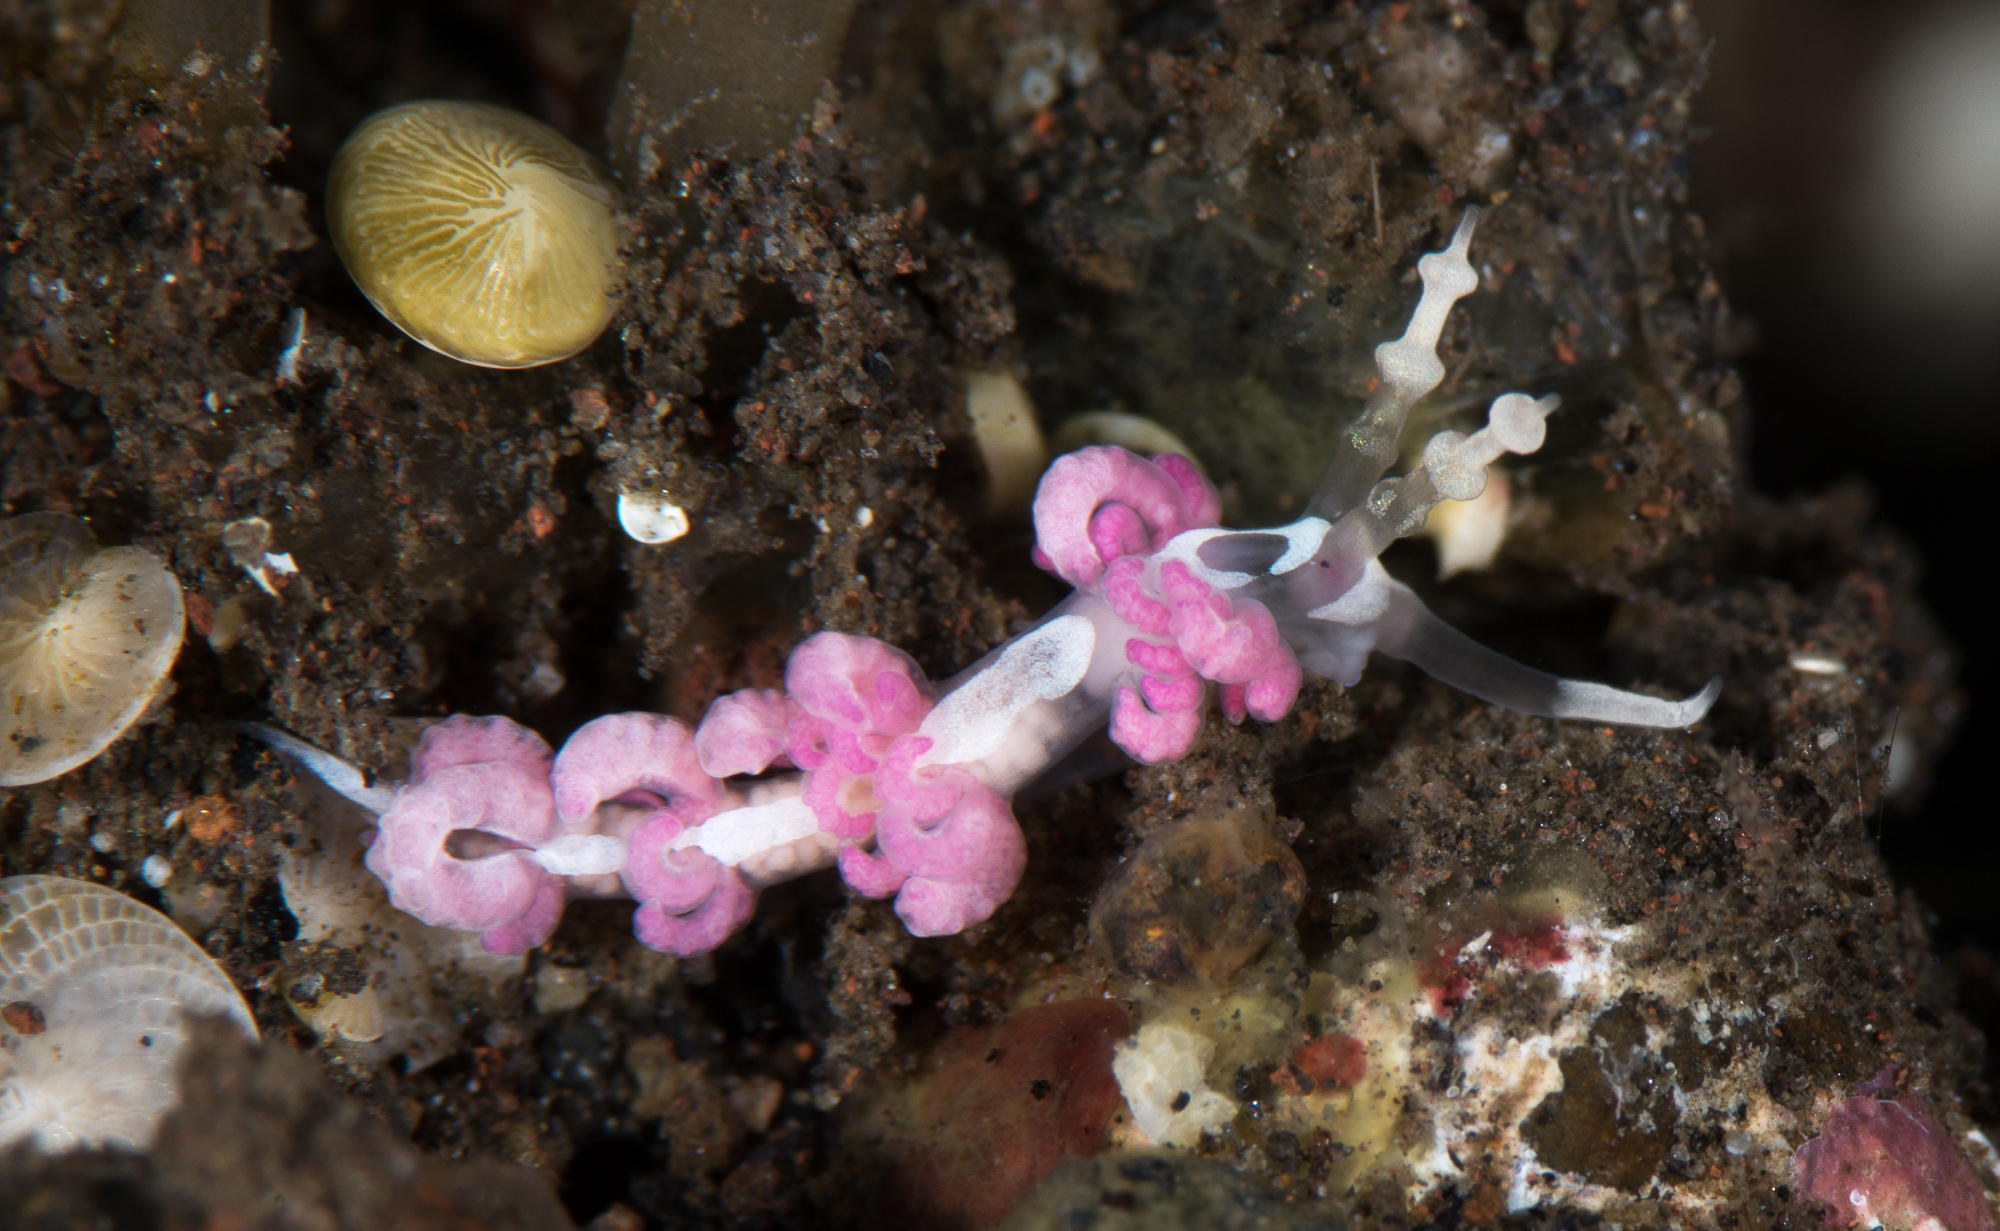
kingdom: Animalia
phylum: Mollusca
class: Gastropoda
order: Nudibranchia
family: Facelinidae
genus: Favorinus
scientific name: Favorinus japonicus
